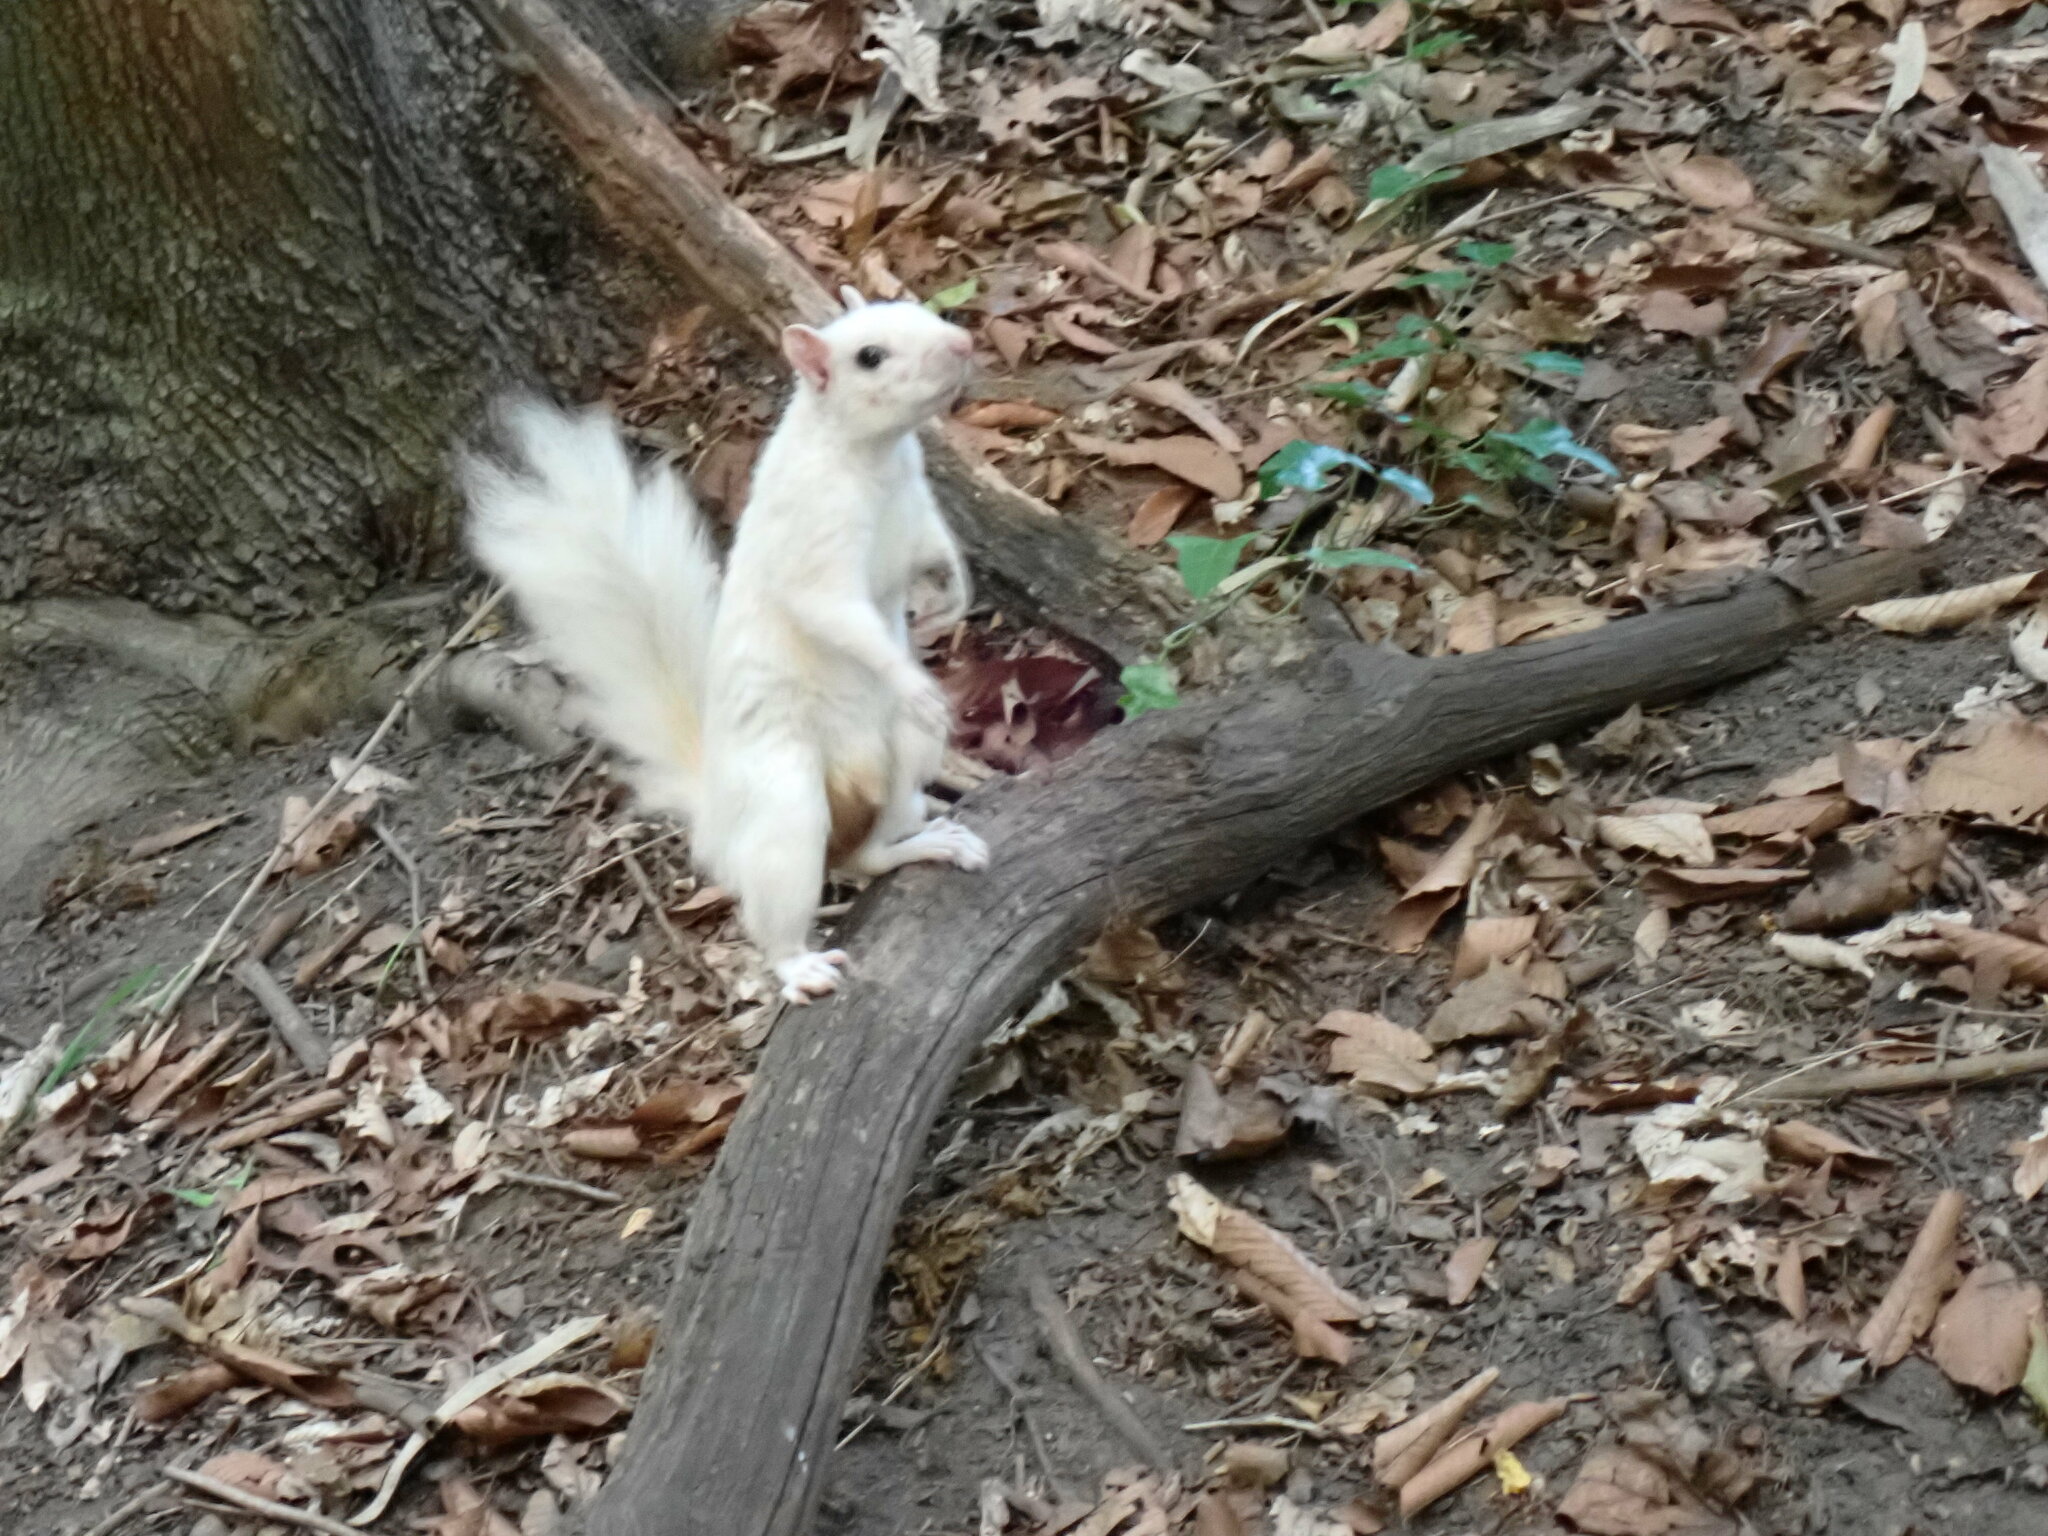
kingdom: Animalia
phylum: Chordata
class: Mammalia
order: Rodentia
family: Sciuridae
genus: Sciurus
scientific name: Sciurus carolinensis
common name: Eastern gray squirrel
